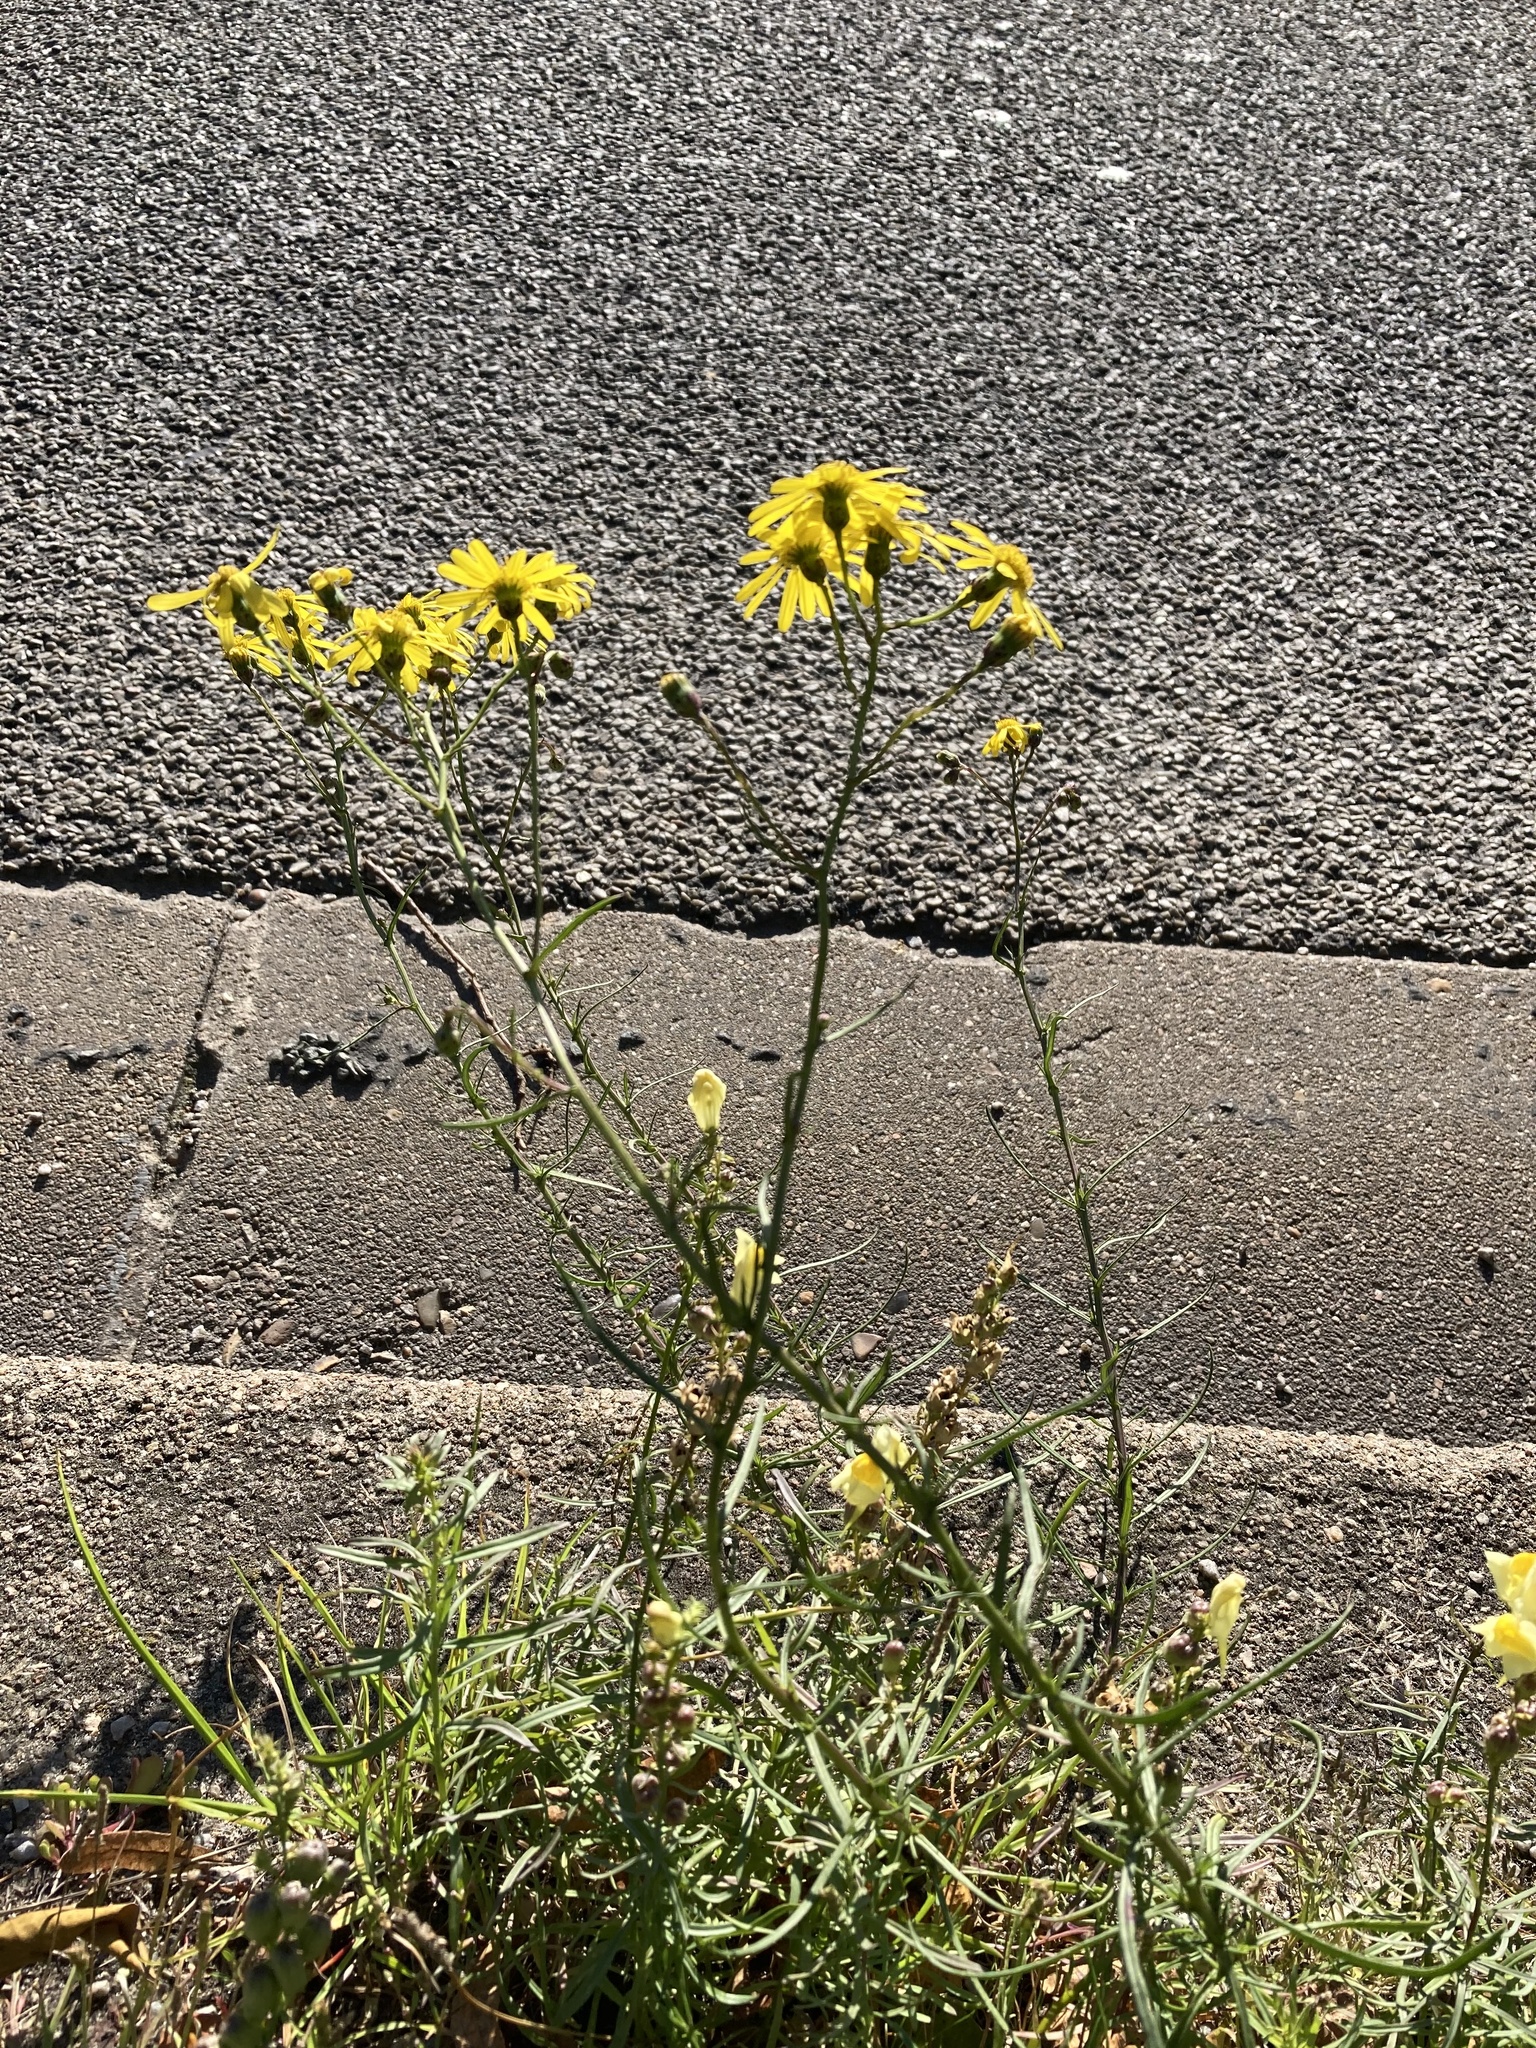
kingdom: Plantae
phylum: Tracheophyta
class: Magnoliopsida
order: Asterales
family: Asteraceae
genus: Senecio
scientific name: Senecio inaequidens
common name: Narrow-leaved ragwort
